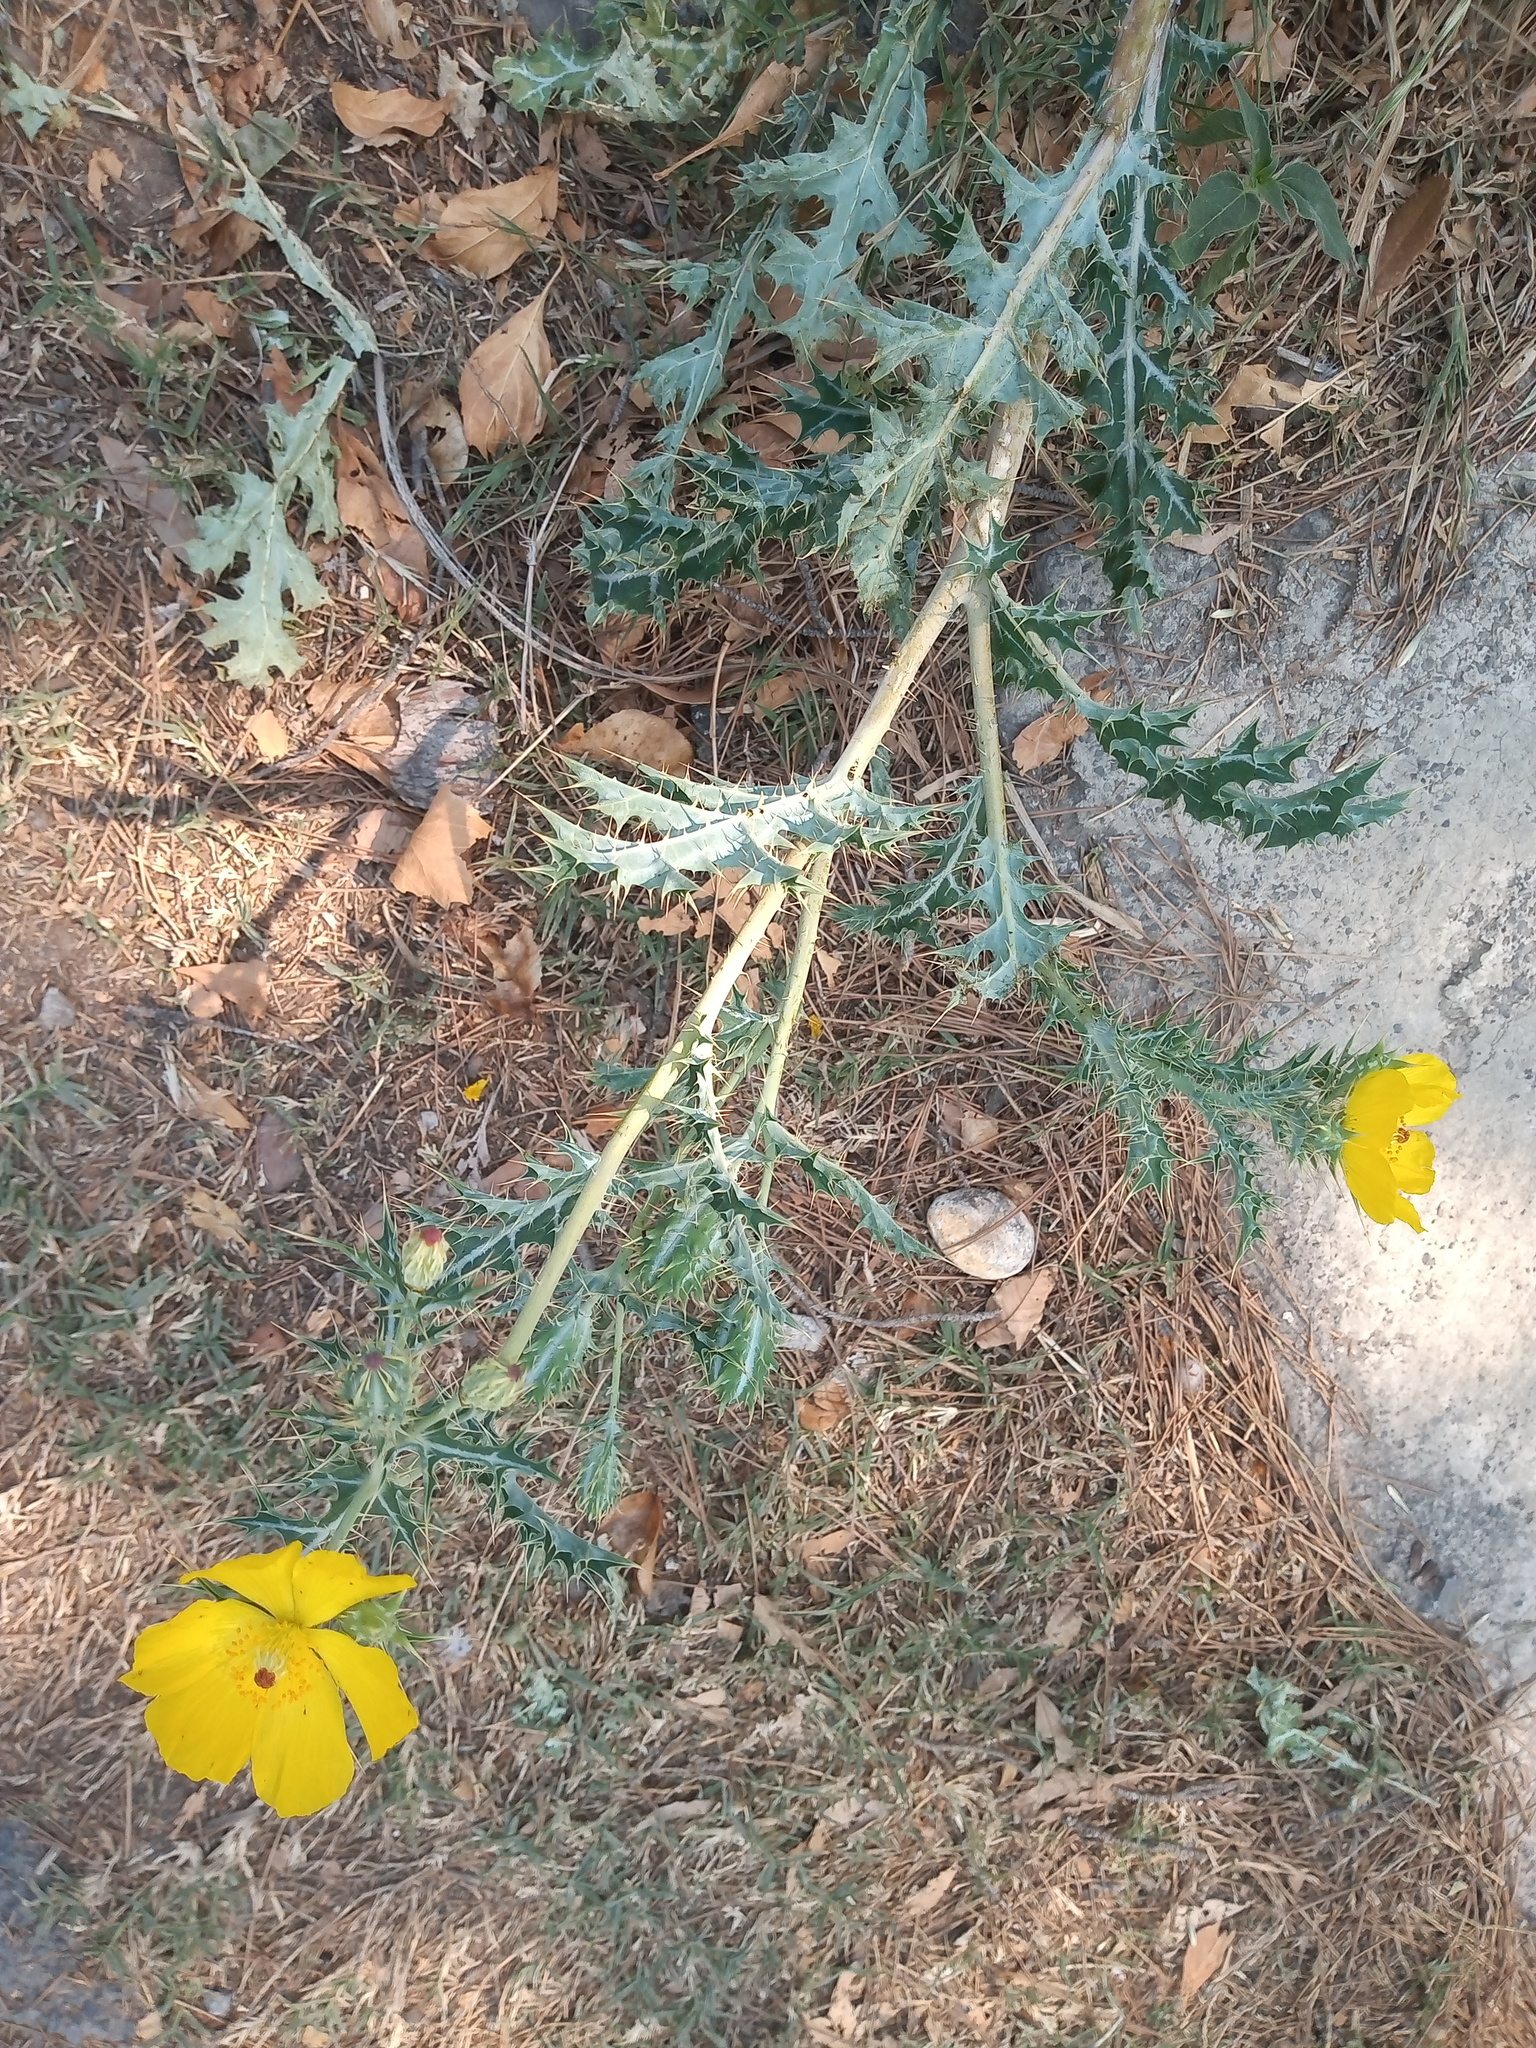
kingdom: Plantae
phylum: Tracheophyta
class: Magnoliopsida
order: Ranunculales
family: Papaveraceae
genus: Argemone
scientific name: Argemone mexicana
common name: Mexican poppy
